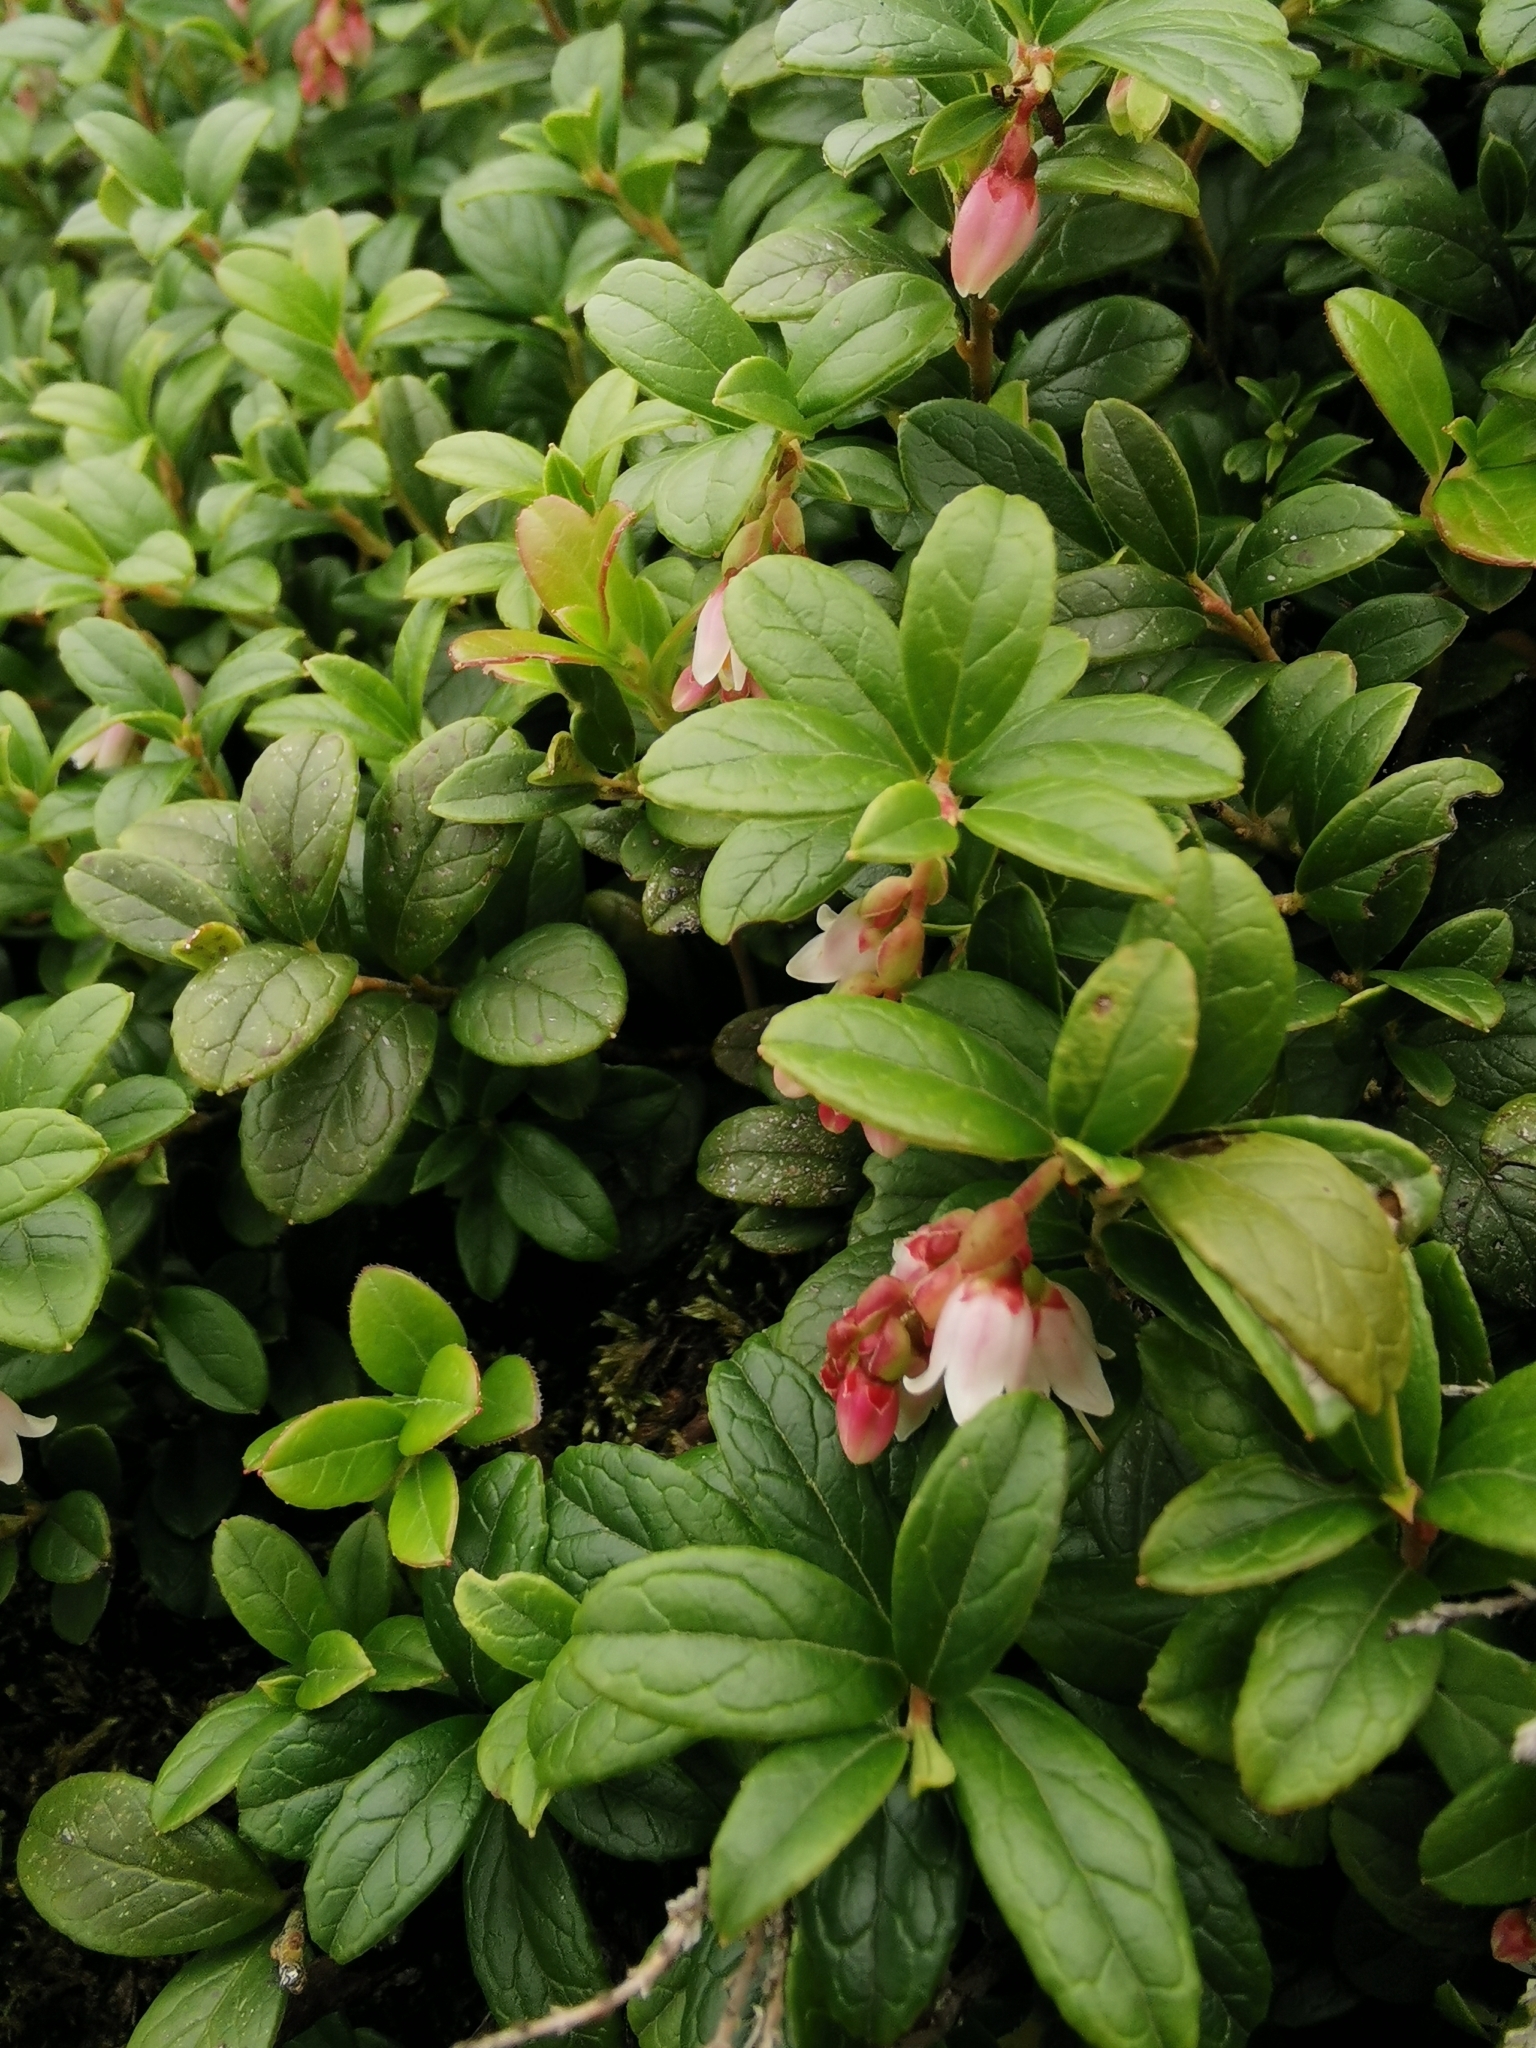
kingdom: Plantae
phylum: Tracheophyta
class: Magnoliopsida
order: Ericales
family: Ericaceae
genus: Vaccinium
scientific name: Vaccinium vitis-idaea
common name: Cowberry
